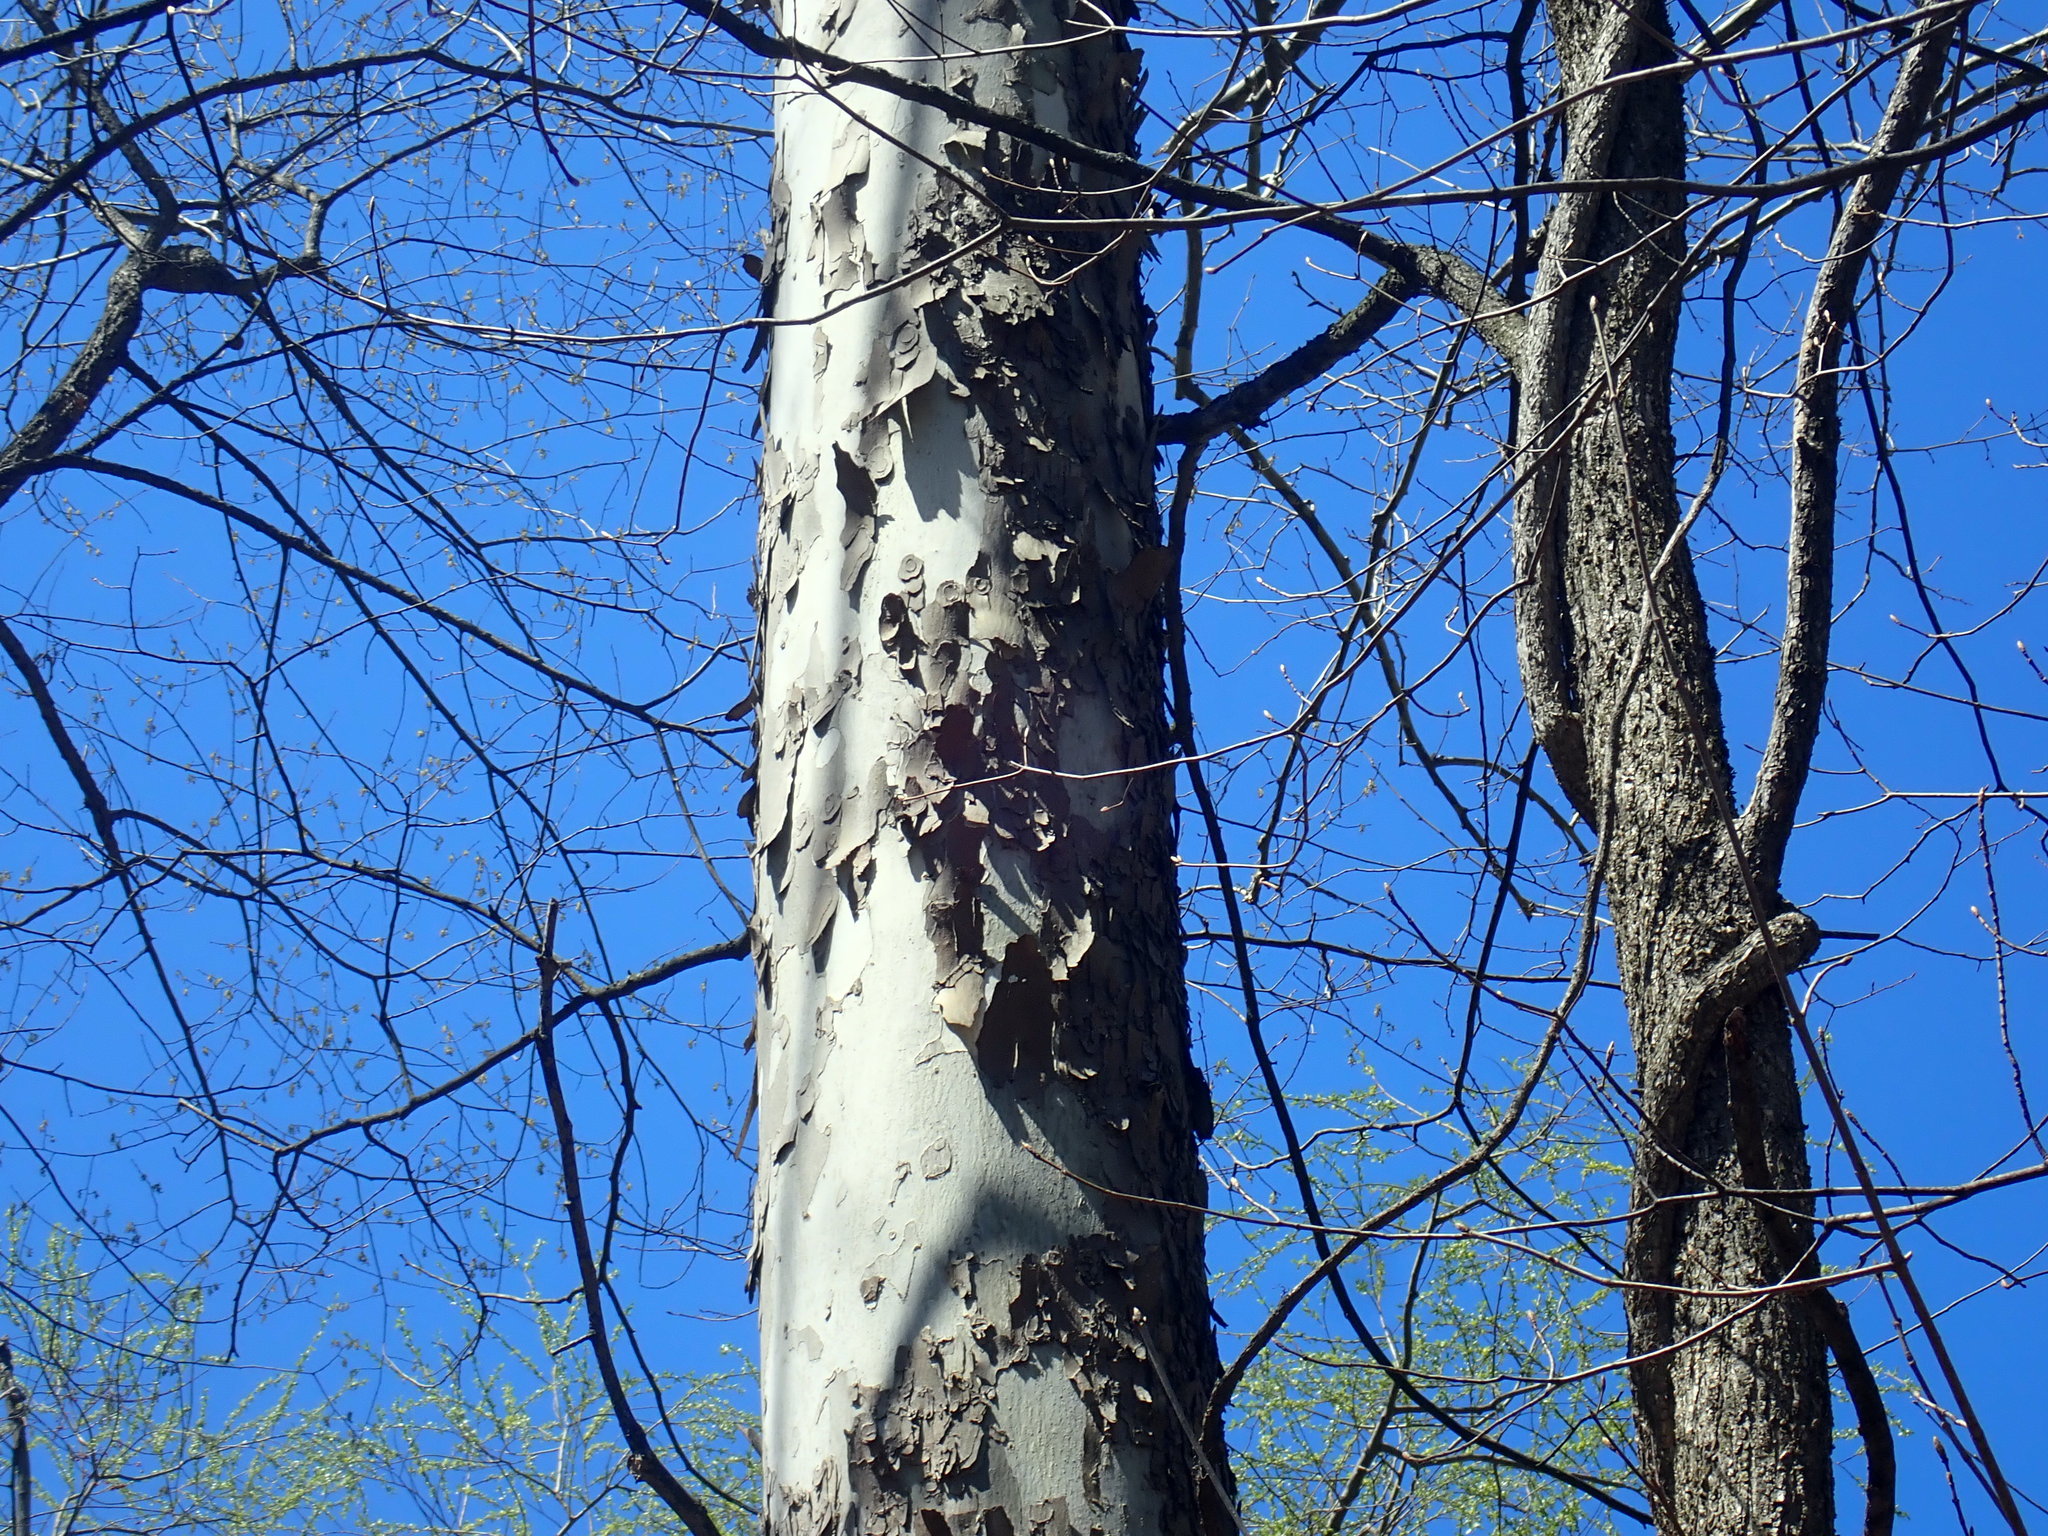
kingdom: Plantae
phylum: Tracheophyta
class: Magnoliopsida
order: Proteales
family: Platanaceae
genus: Platanus
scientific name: Platanus occidentalis
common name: American sycamore
